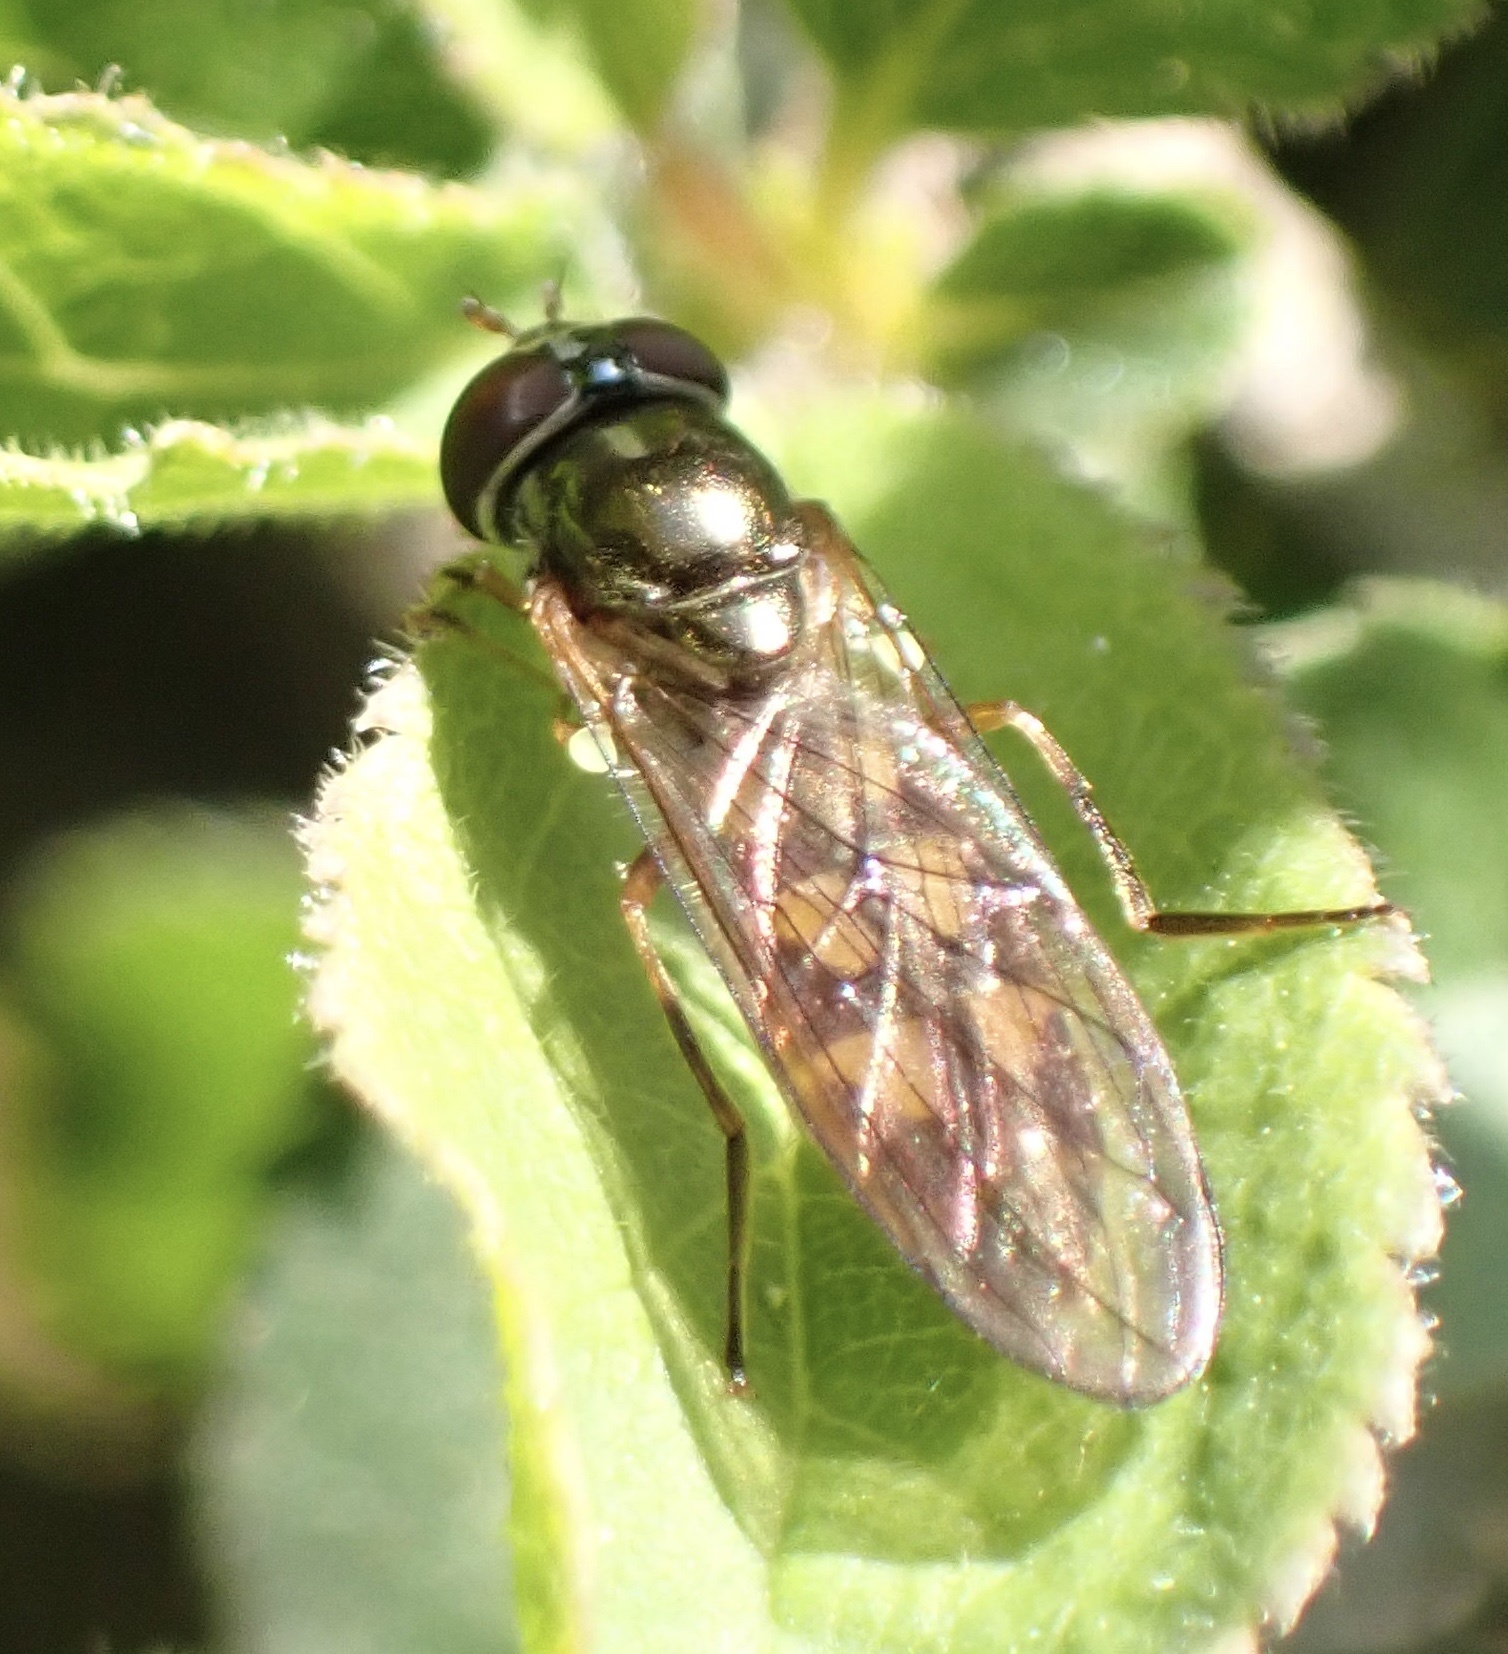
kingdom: Animalia
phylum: Arthropoda
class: Insecta
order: Diptera
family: Syrphidae
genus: Melanostoma
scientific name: Melanostoma
